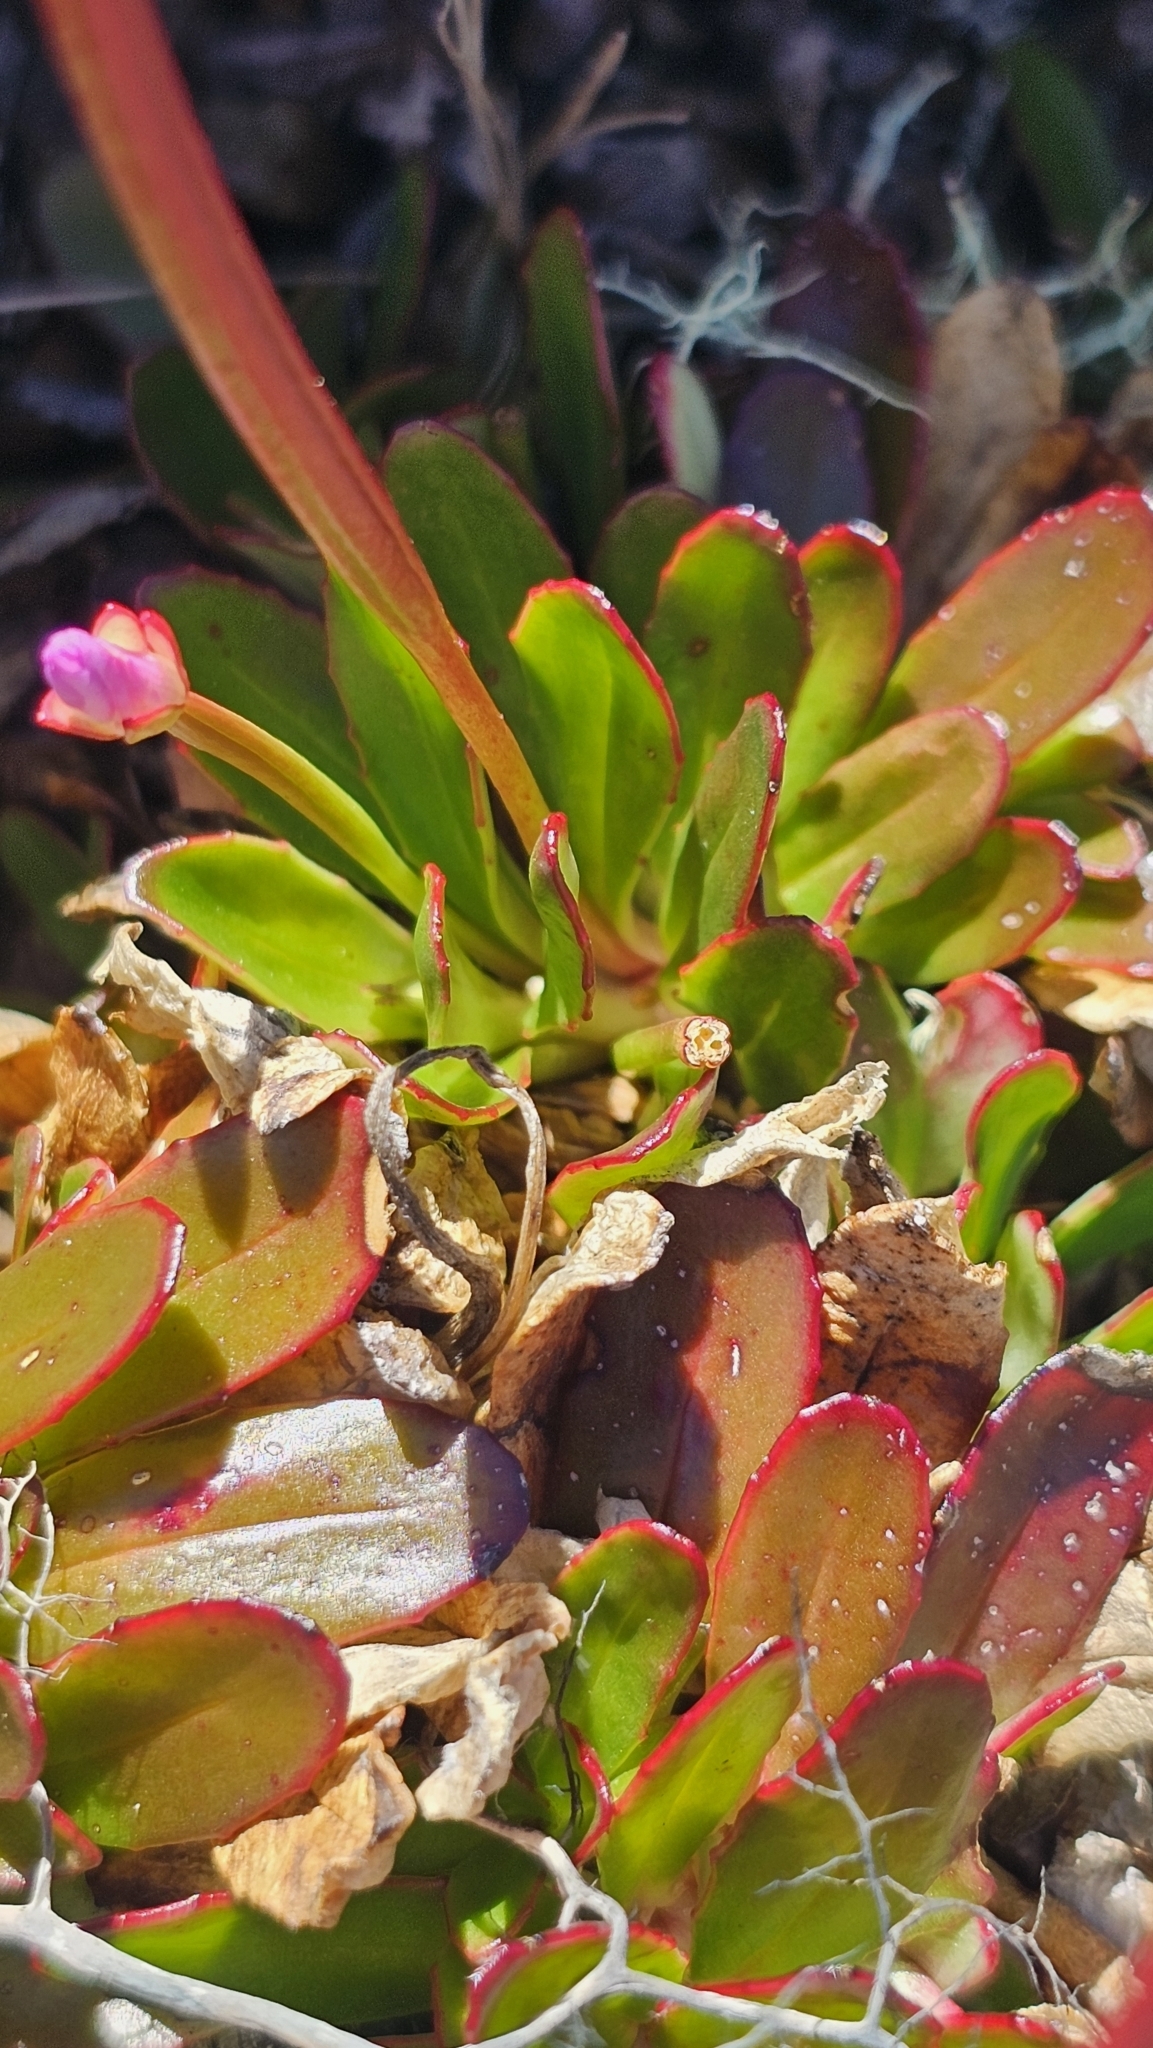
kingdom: Plantae
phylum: Tracheophyta
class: Magnoliopsida
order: Myrtales
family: Onagraceae
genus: Epilobium
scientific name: Epilobium crassum
